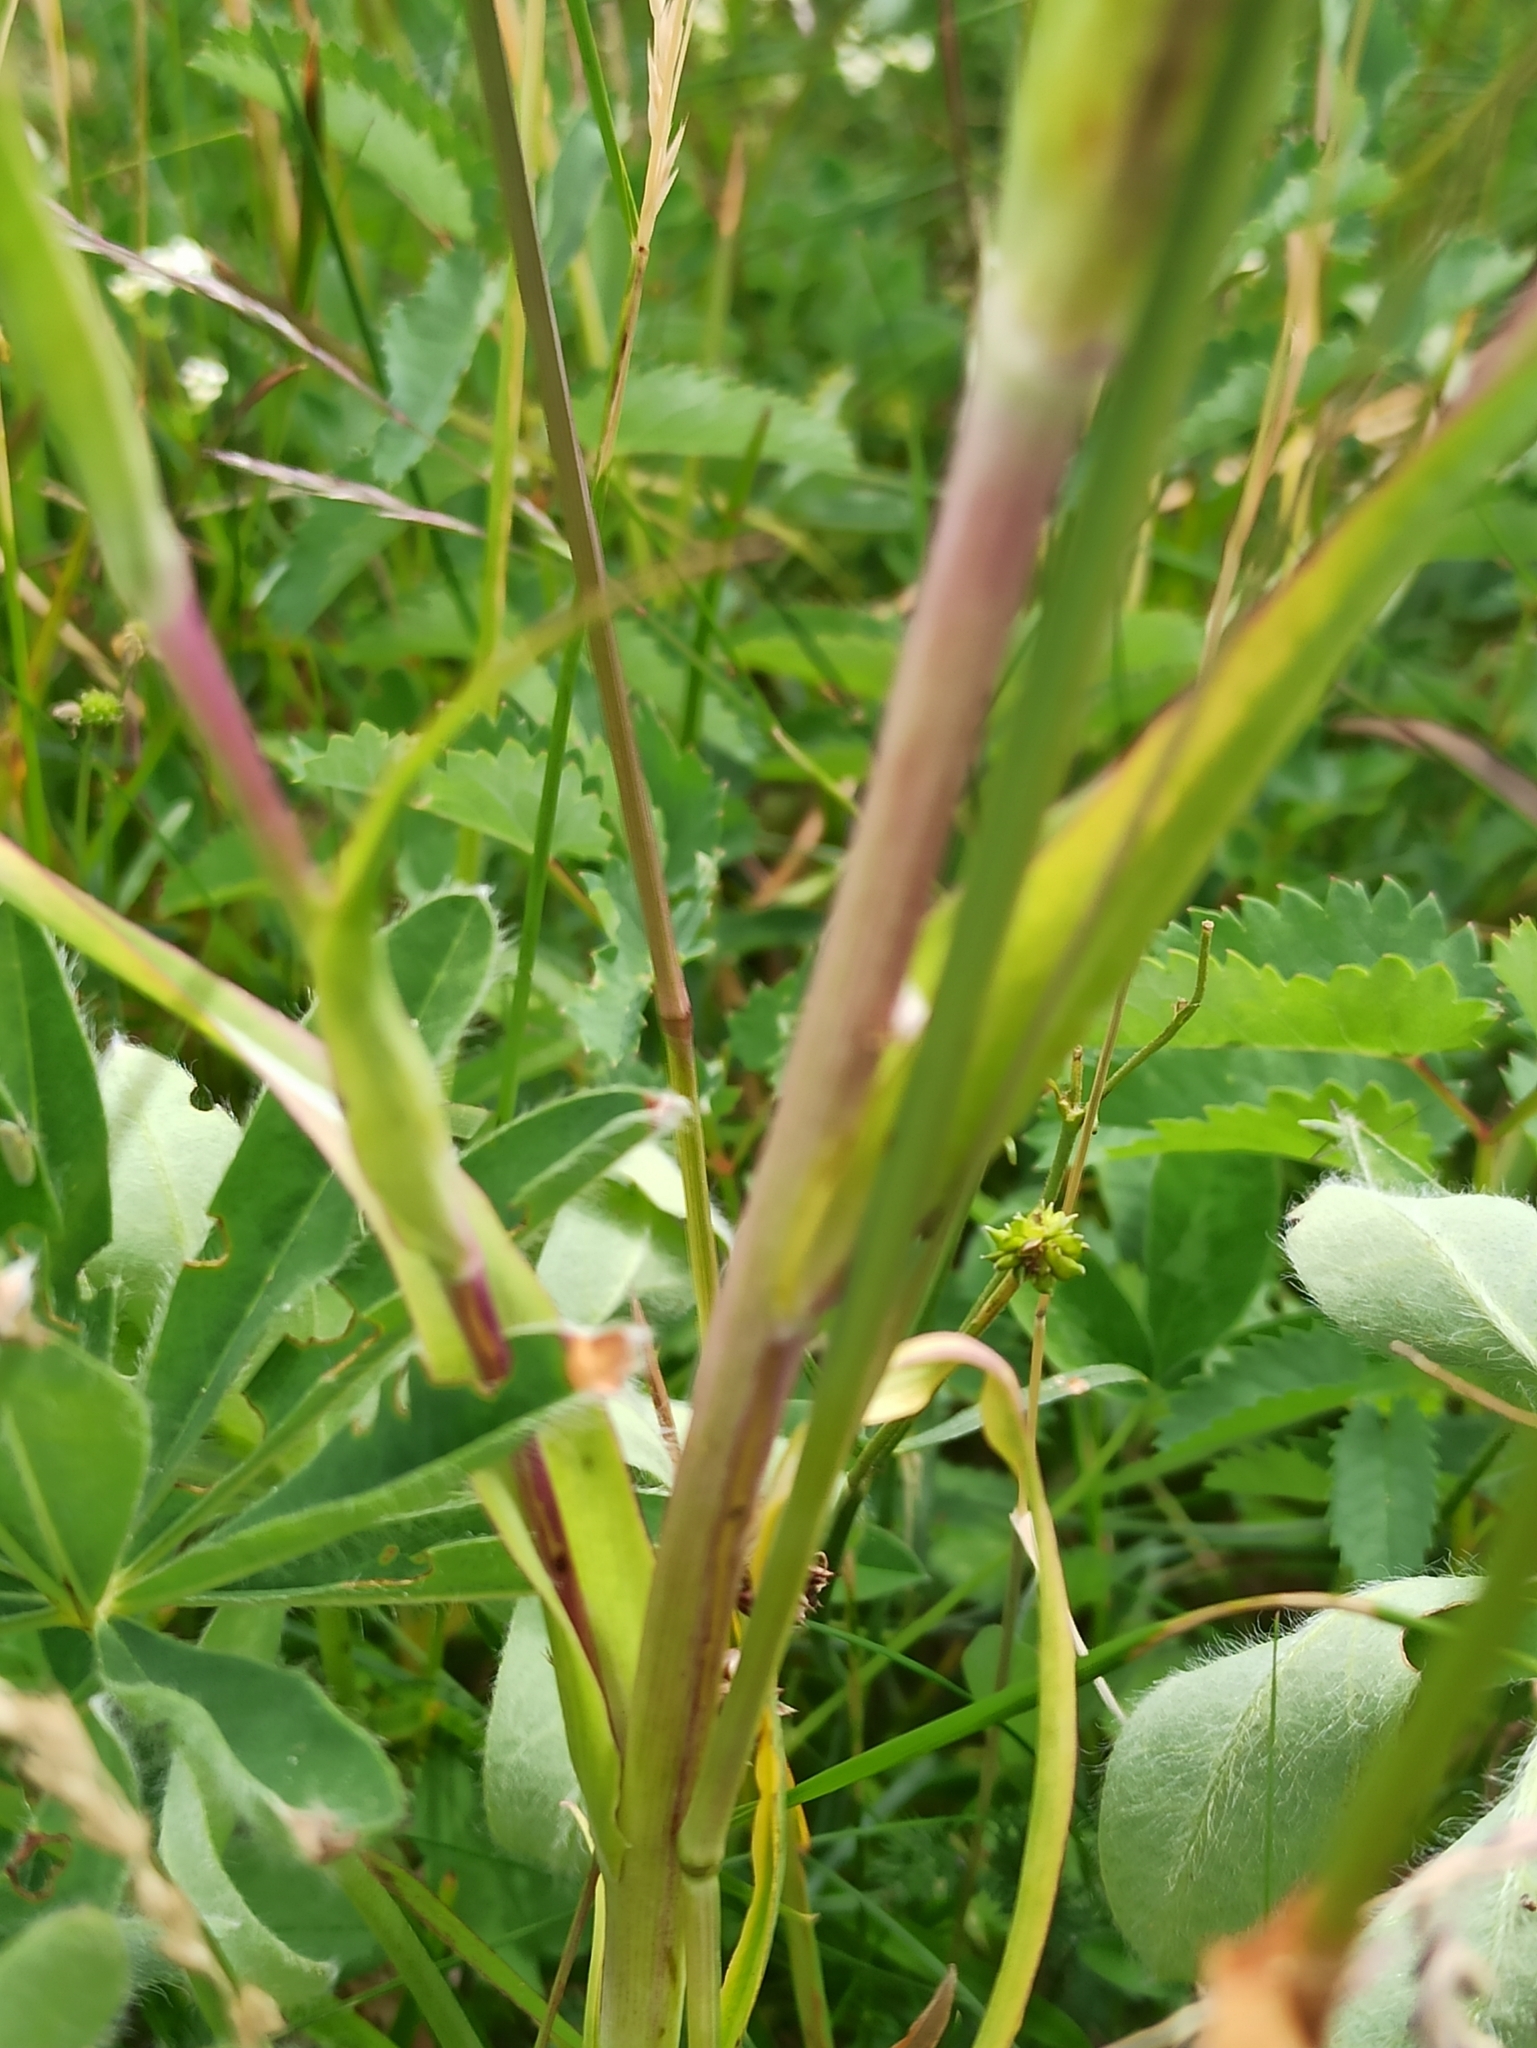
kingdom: Plantae
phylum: Tracheophyta
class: Magnoliopsida
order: Asterales
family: Asteraceae
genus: Tragopogon
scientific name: Tragopogon pratensis
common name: Goat's-beard
